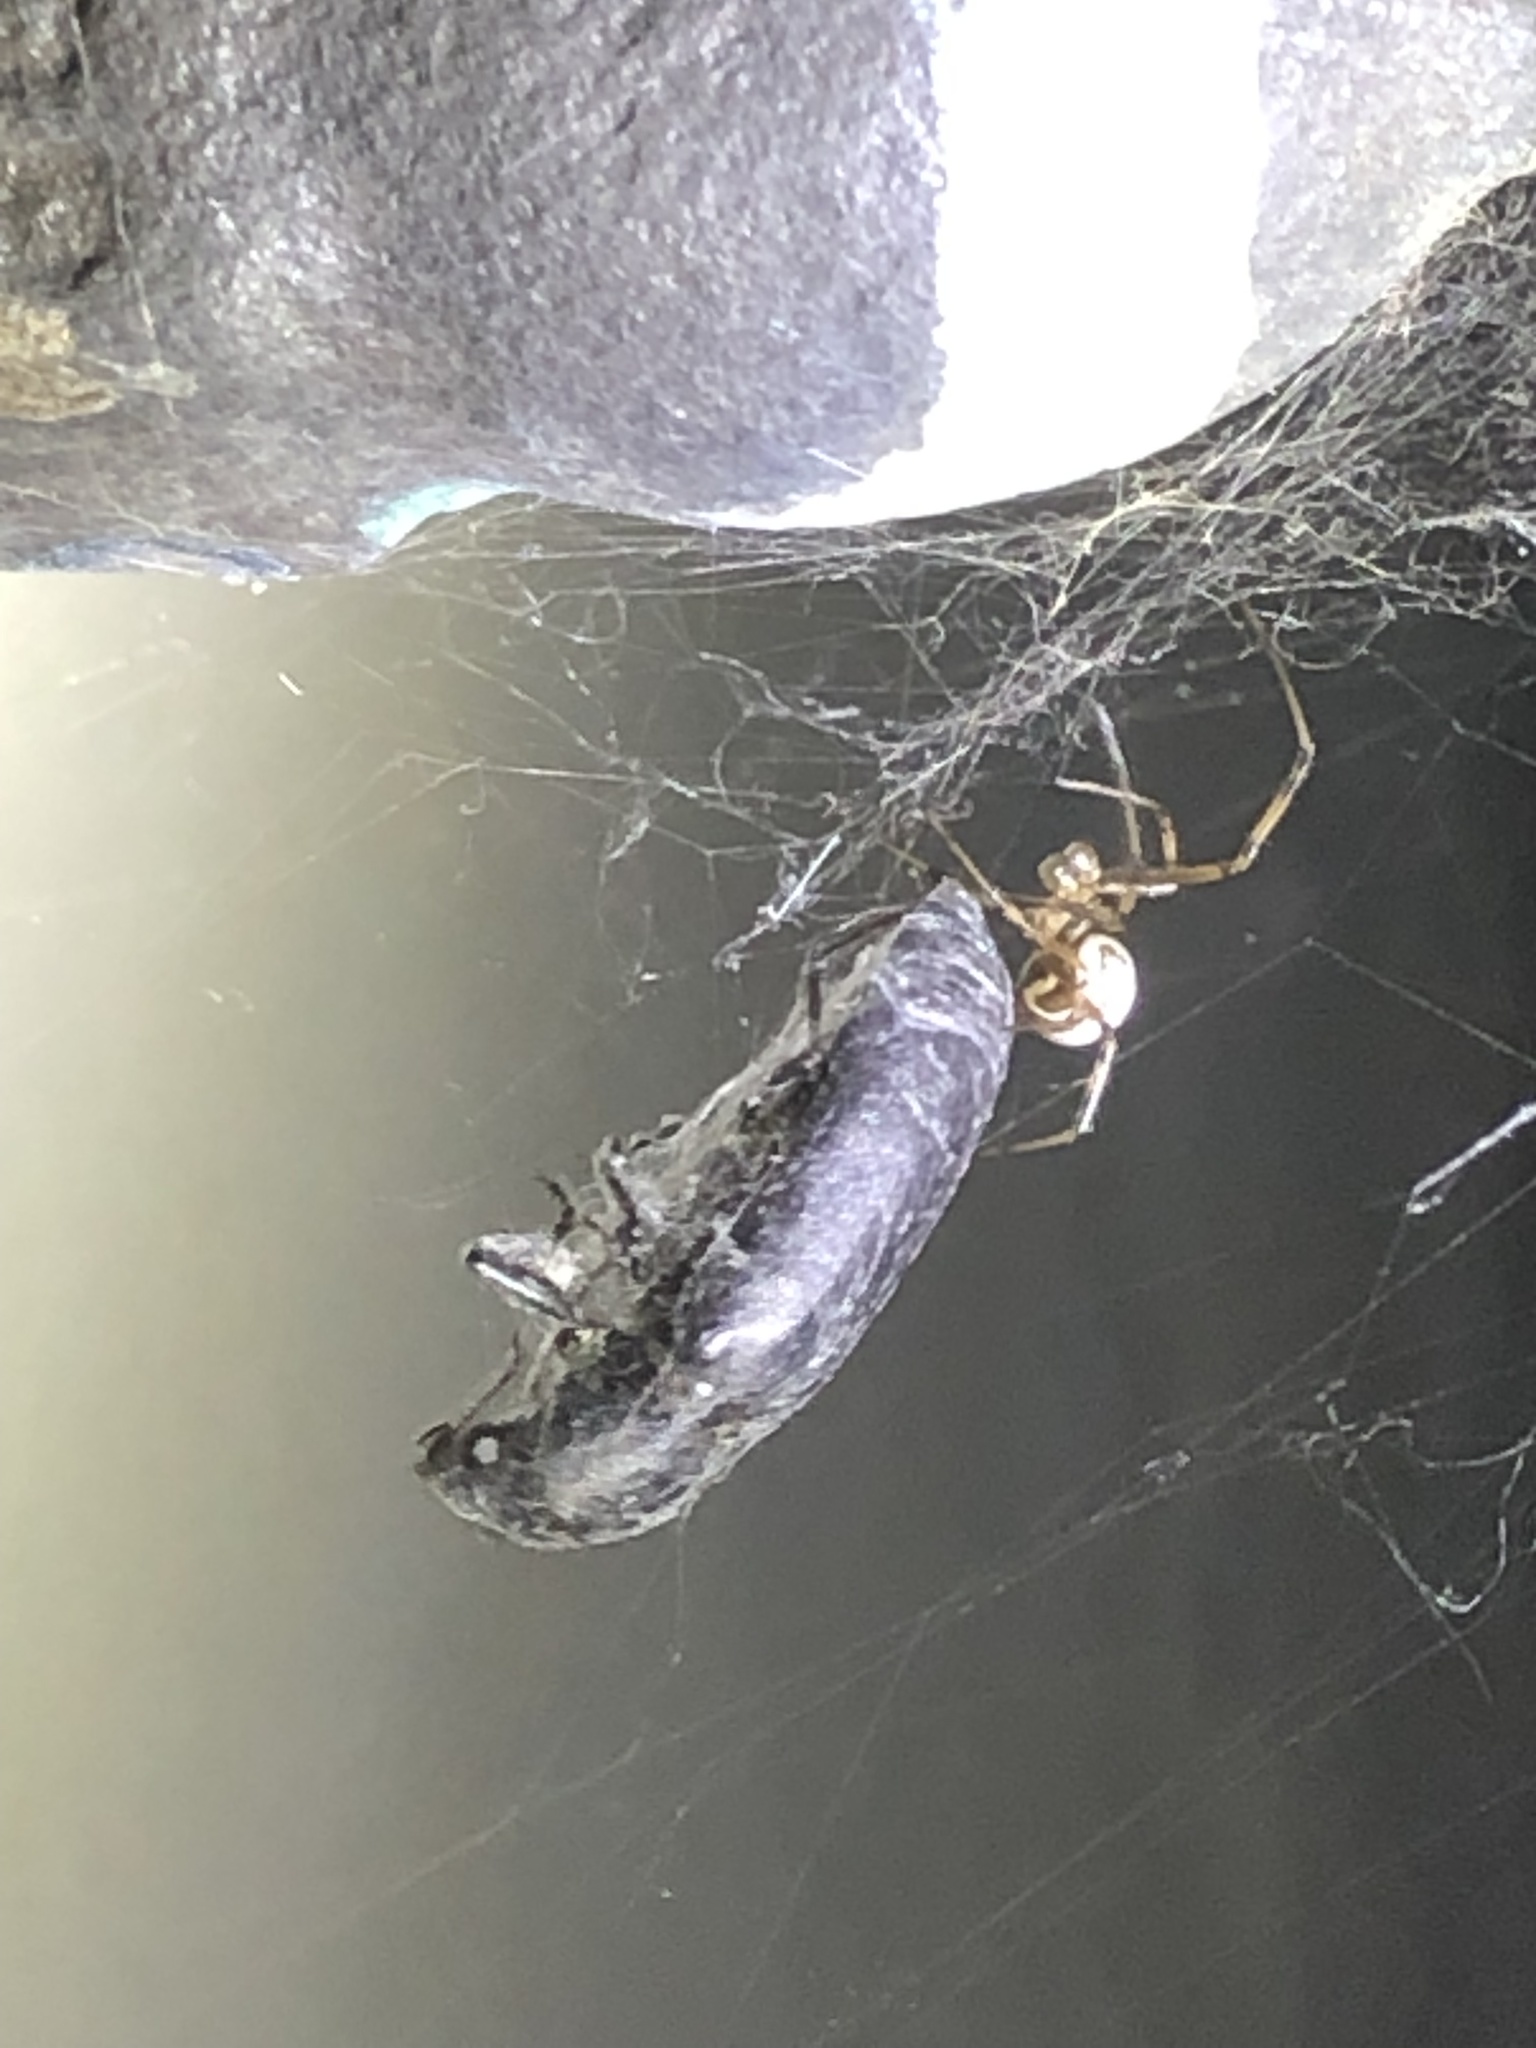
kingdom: Animalia
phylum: Arthropoda
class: Arachnida
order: Araneae
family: Theridiidae
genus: Latrodectus
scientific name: Latrodectus hesperus
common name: Western black widow
